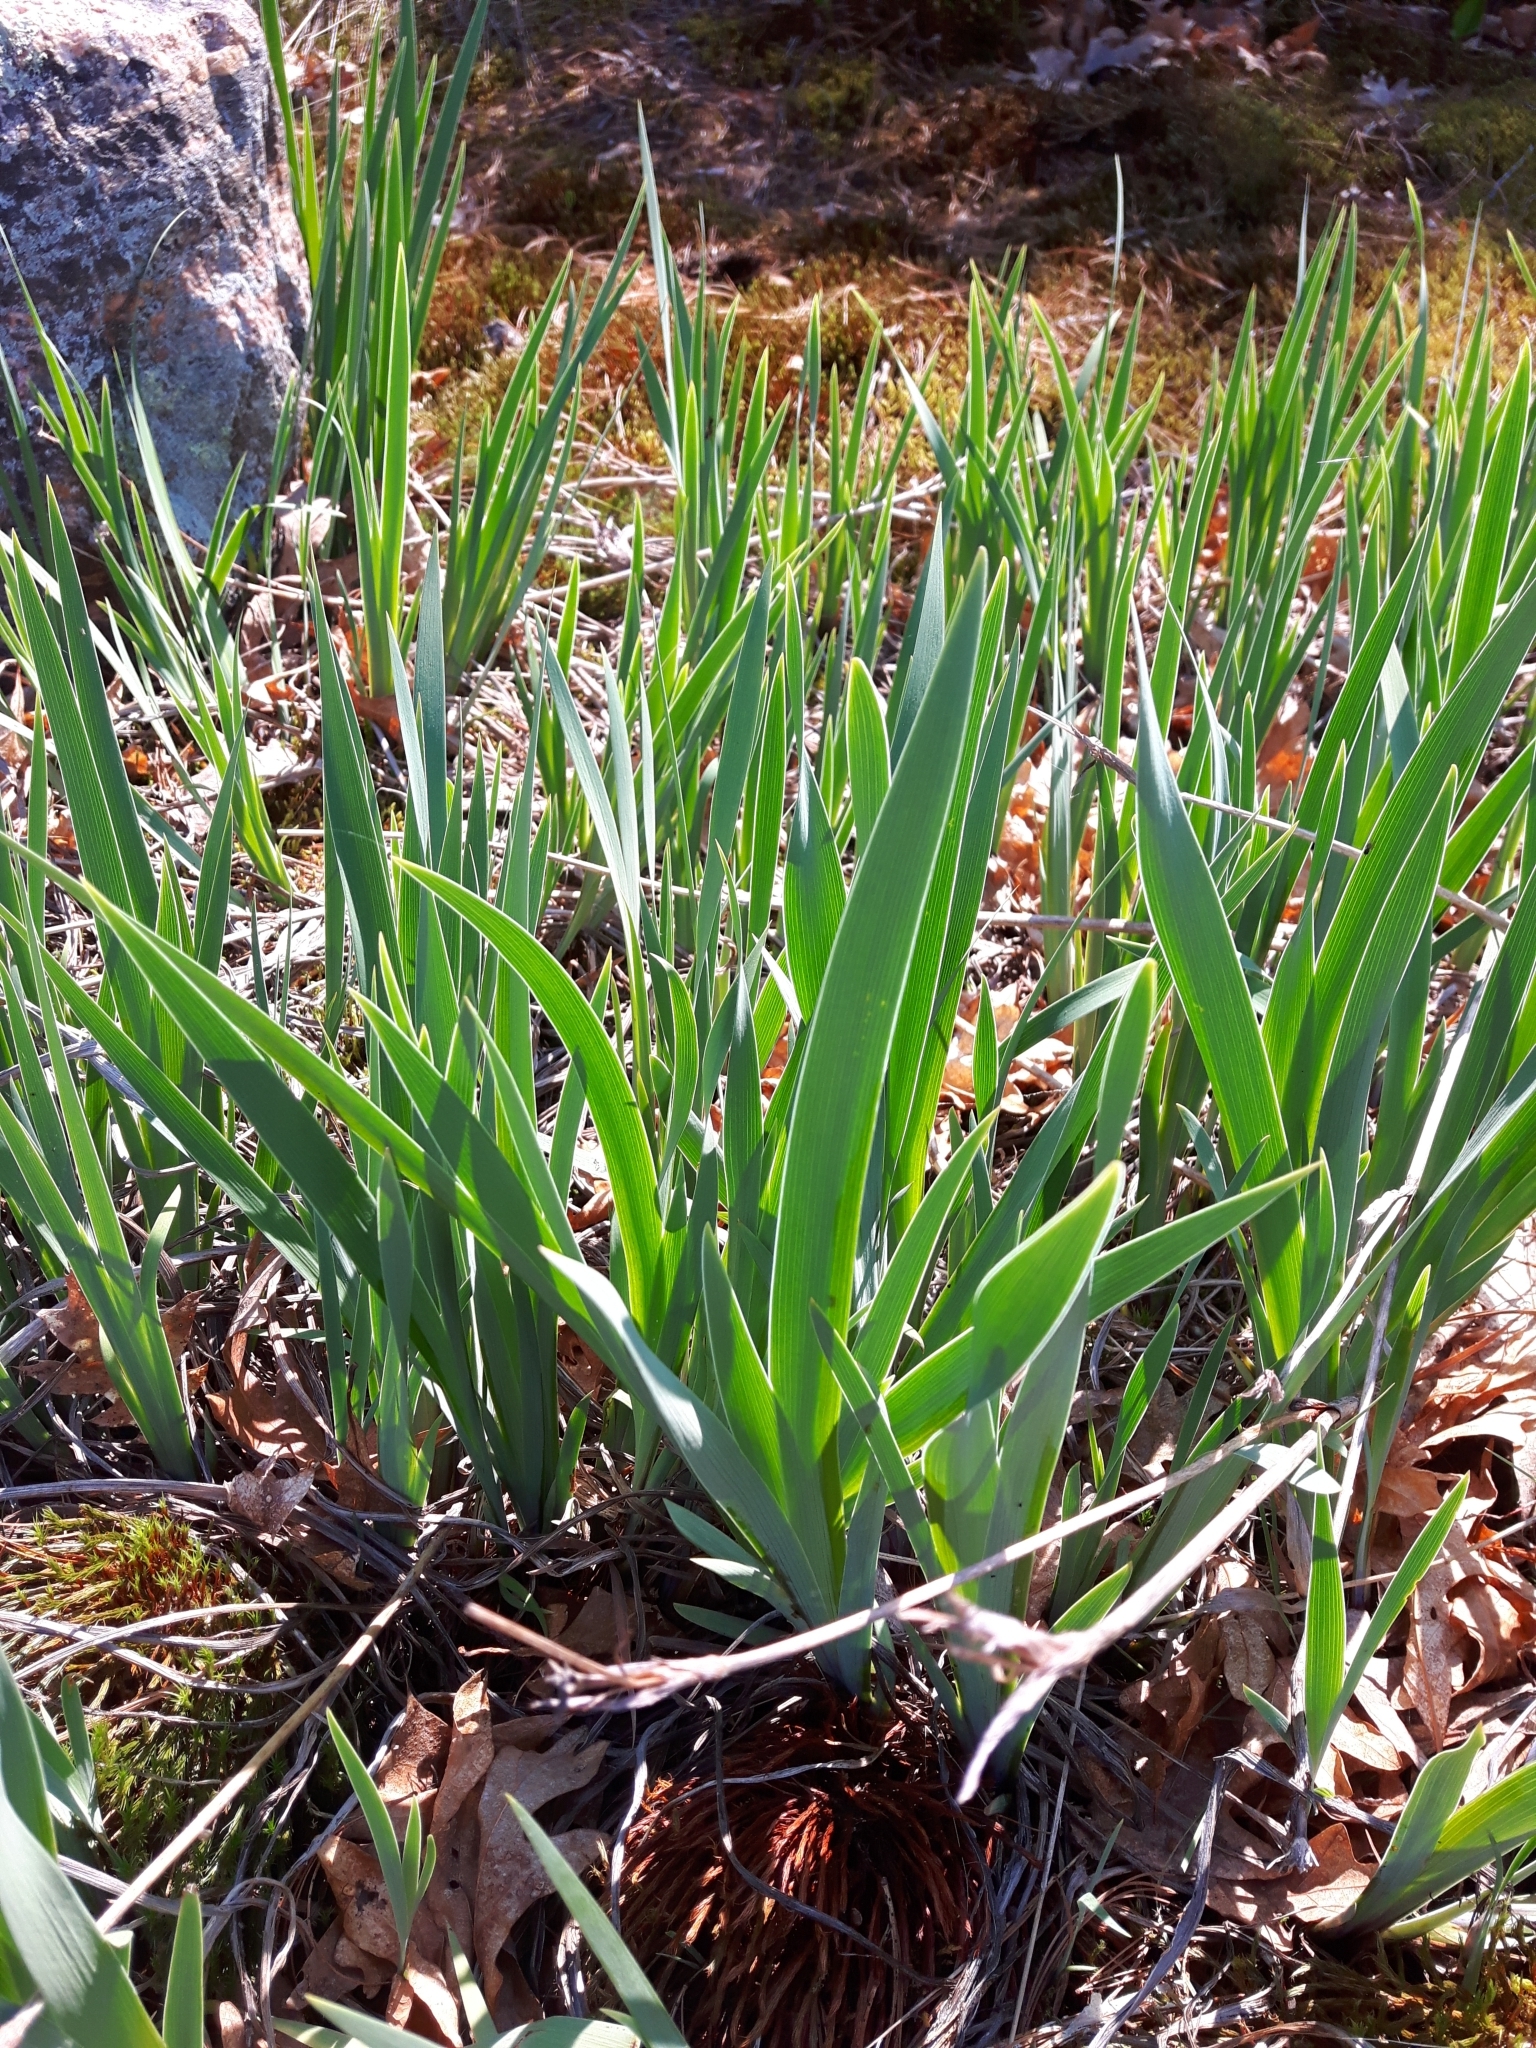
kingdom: Plantae
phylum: Tracheophyta
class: Liliopsida
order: Asparagales
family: Iridaceae
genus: Iris
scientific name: Iris versicolor
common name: Purple iris
